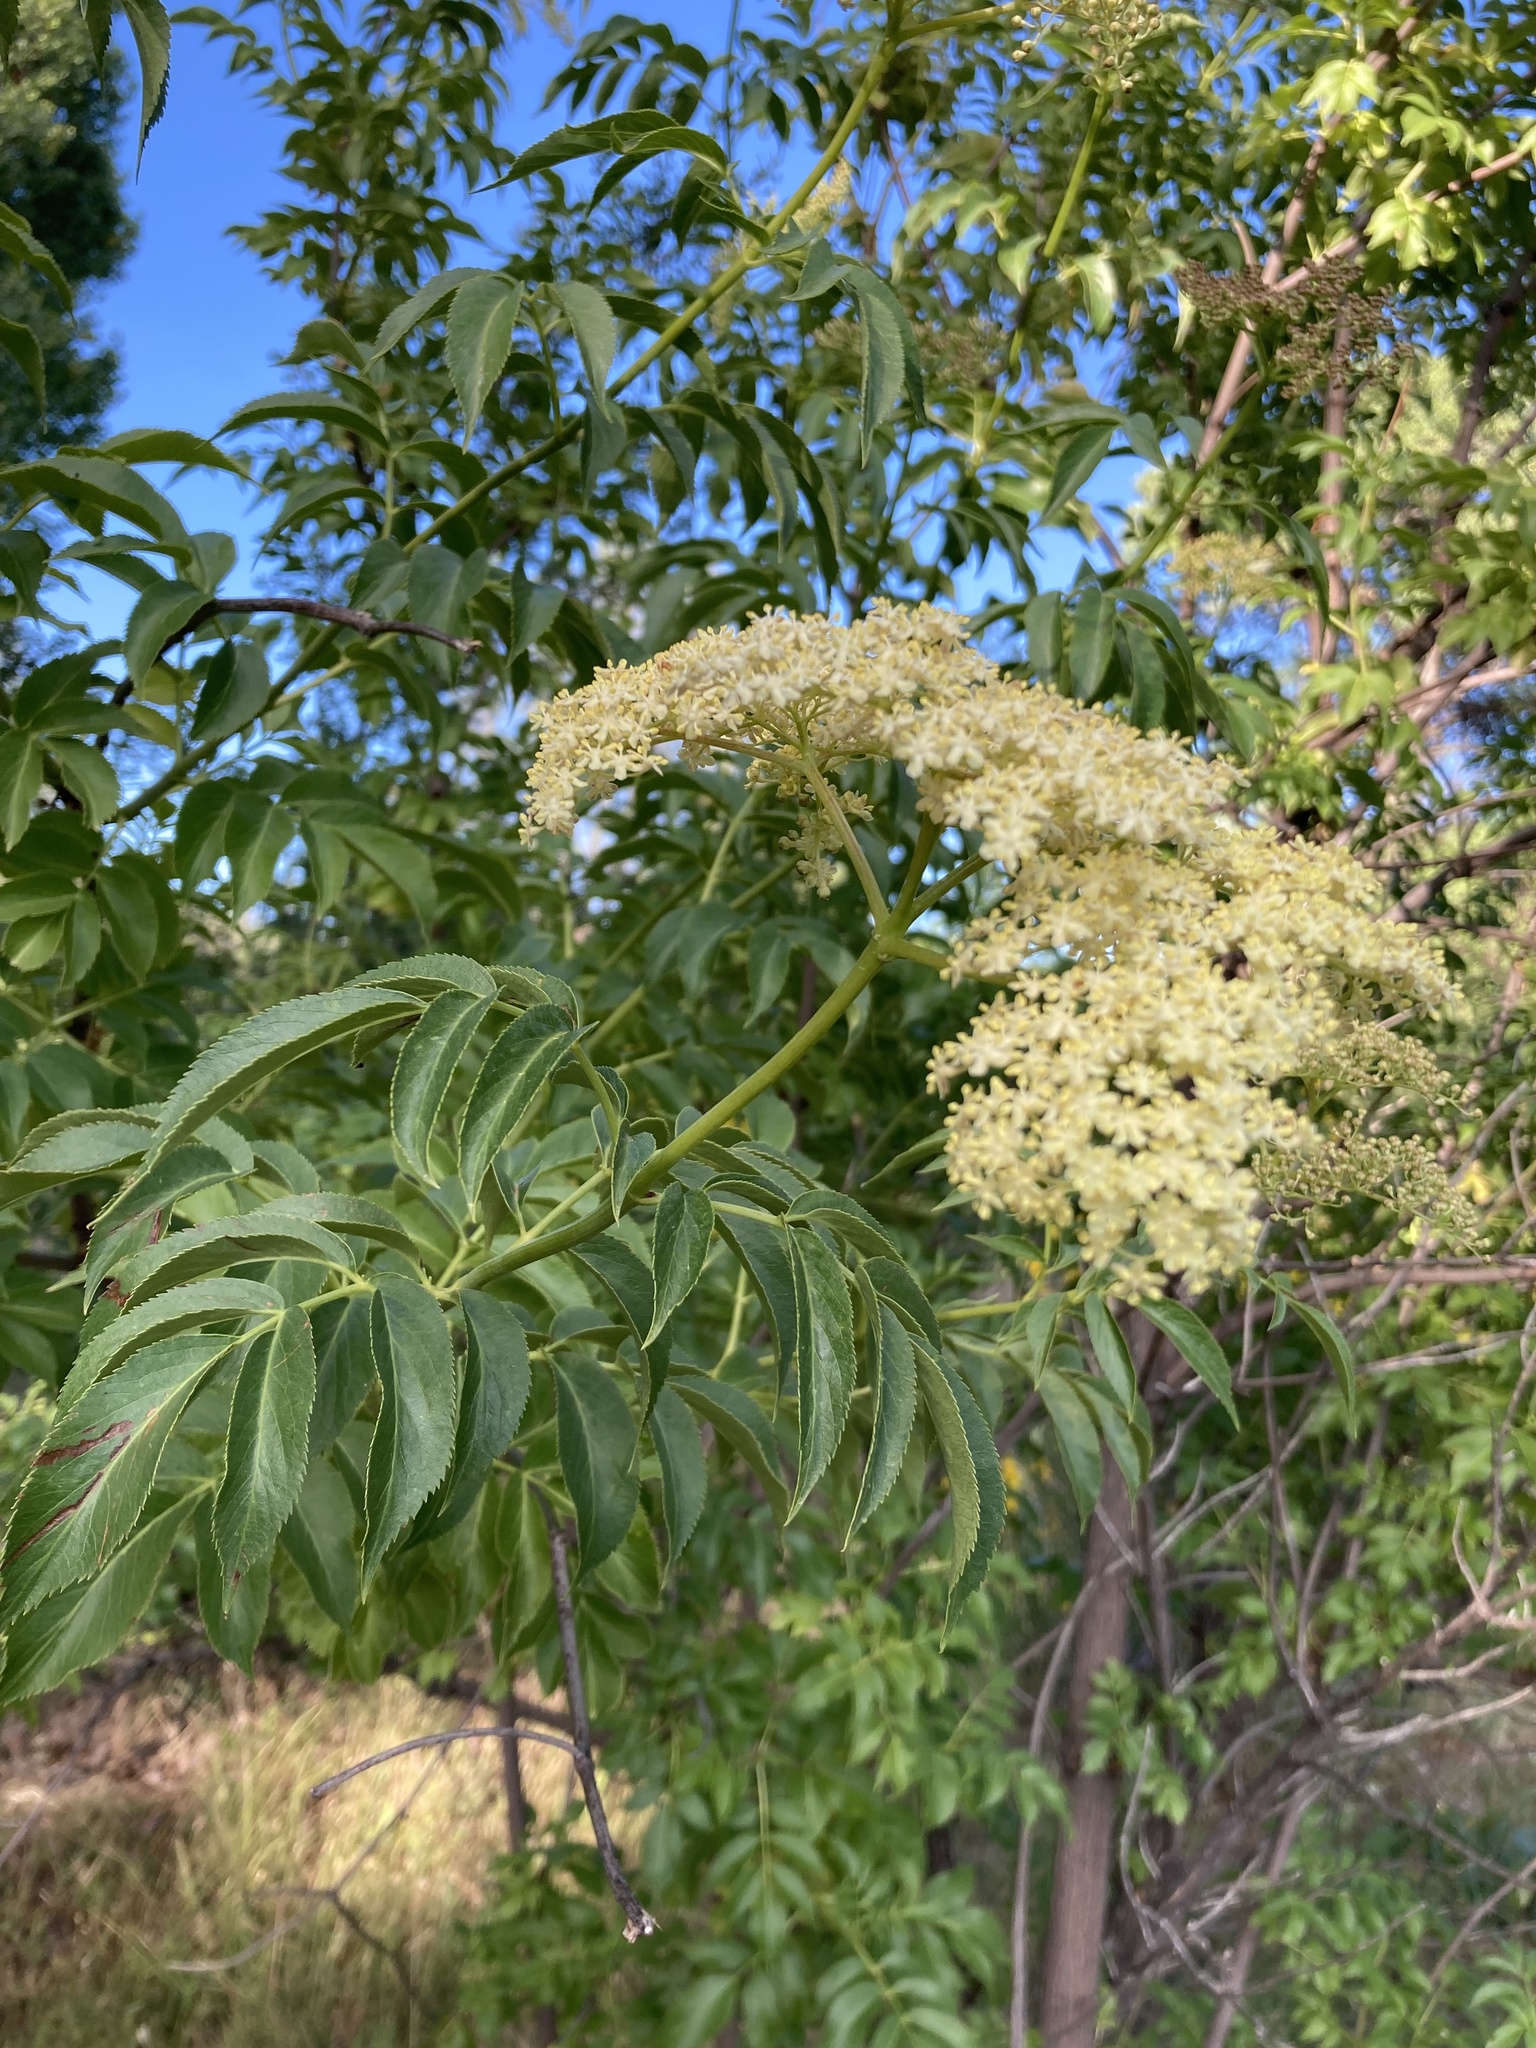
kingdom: Plantae
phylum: Tracheophyta
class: Magnoliopsida
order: Dipsacales
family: Viburnaceae
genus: Sambucus
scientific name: Sambucus cerulea
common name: Blue elder
